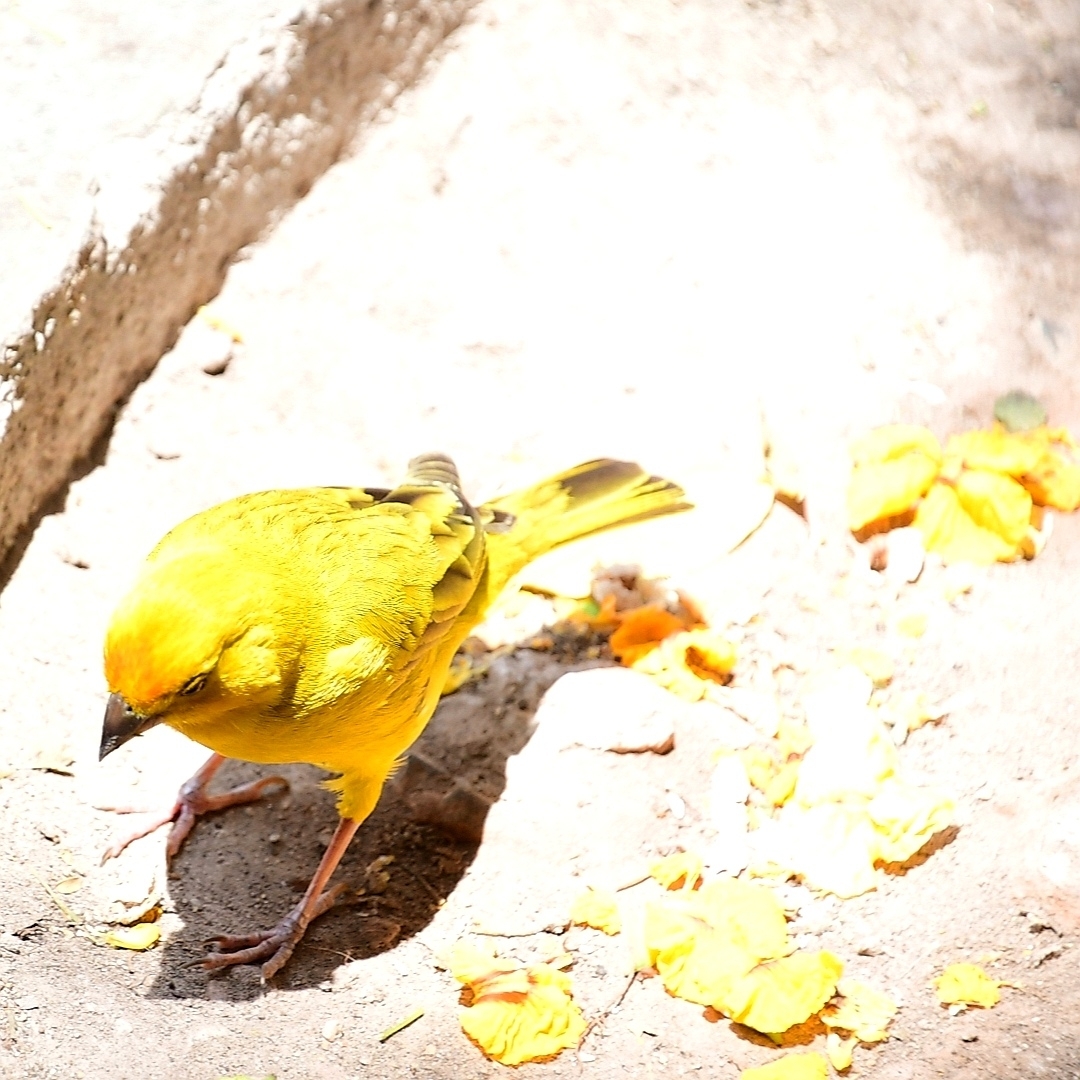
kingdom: Animalia
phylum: Chordata
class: Aves
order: Passeriformes
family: Thraupidae
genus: Sicalis
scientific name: Sicalis flaveola
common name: Saffron finch
